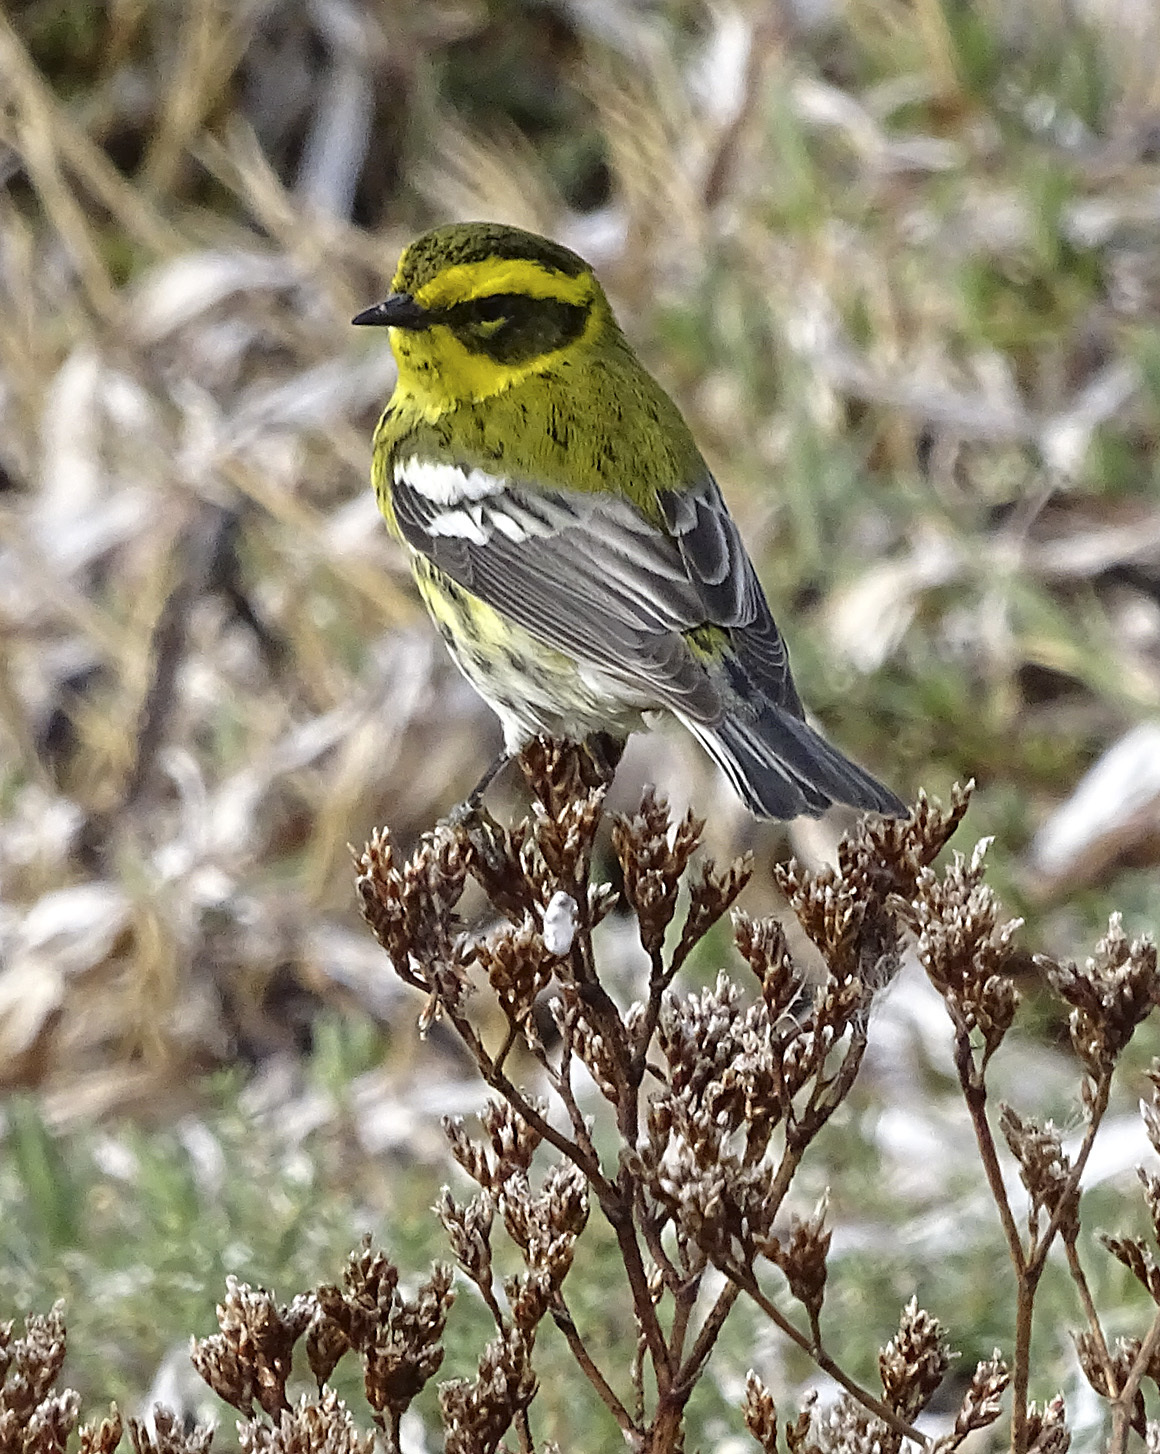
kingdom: Animalia
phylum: Chordata
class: Aves
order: Passeriformes
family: Parulidae
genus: Setophaga
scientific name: Setophaga townsendi
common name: Townsend's warbler
